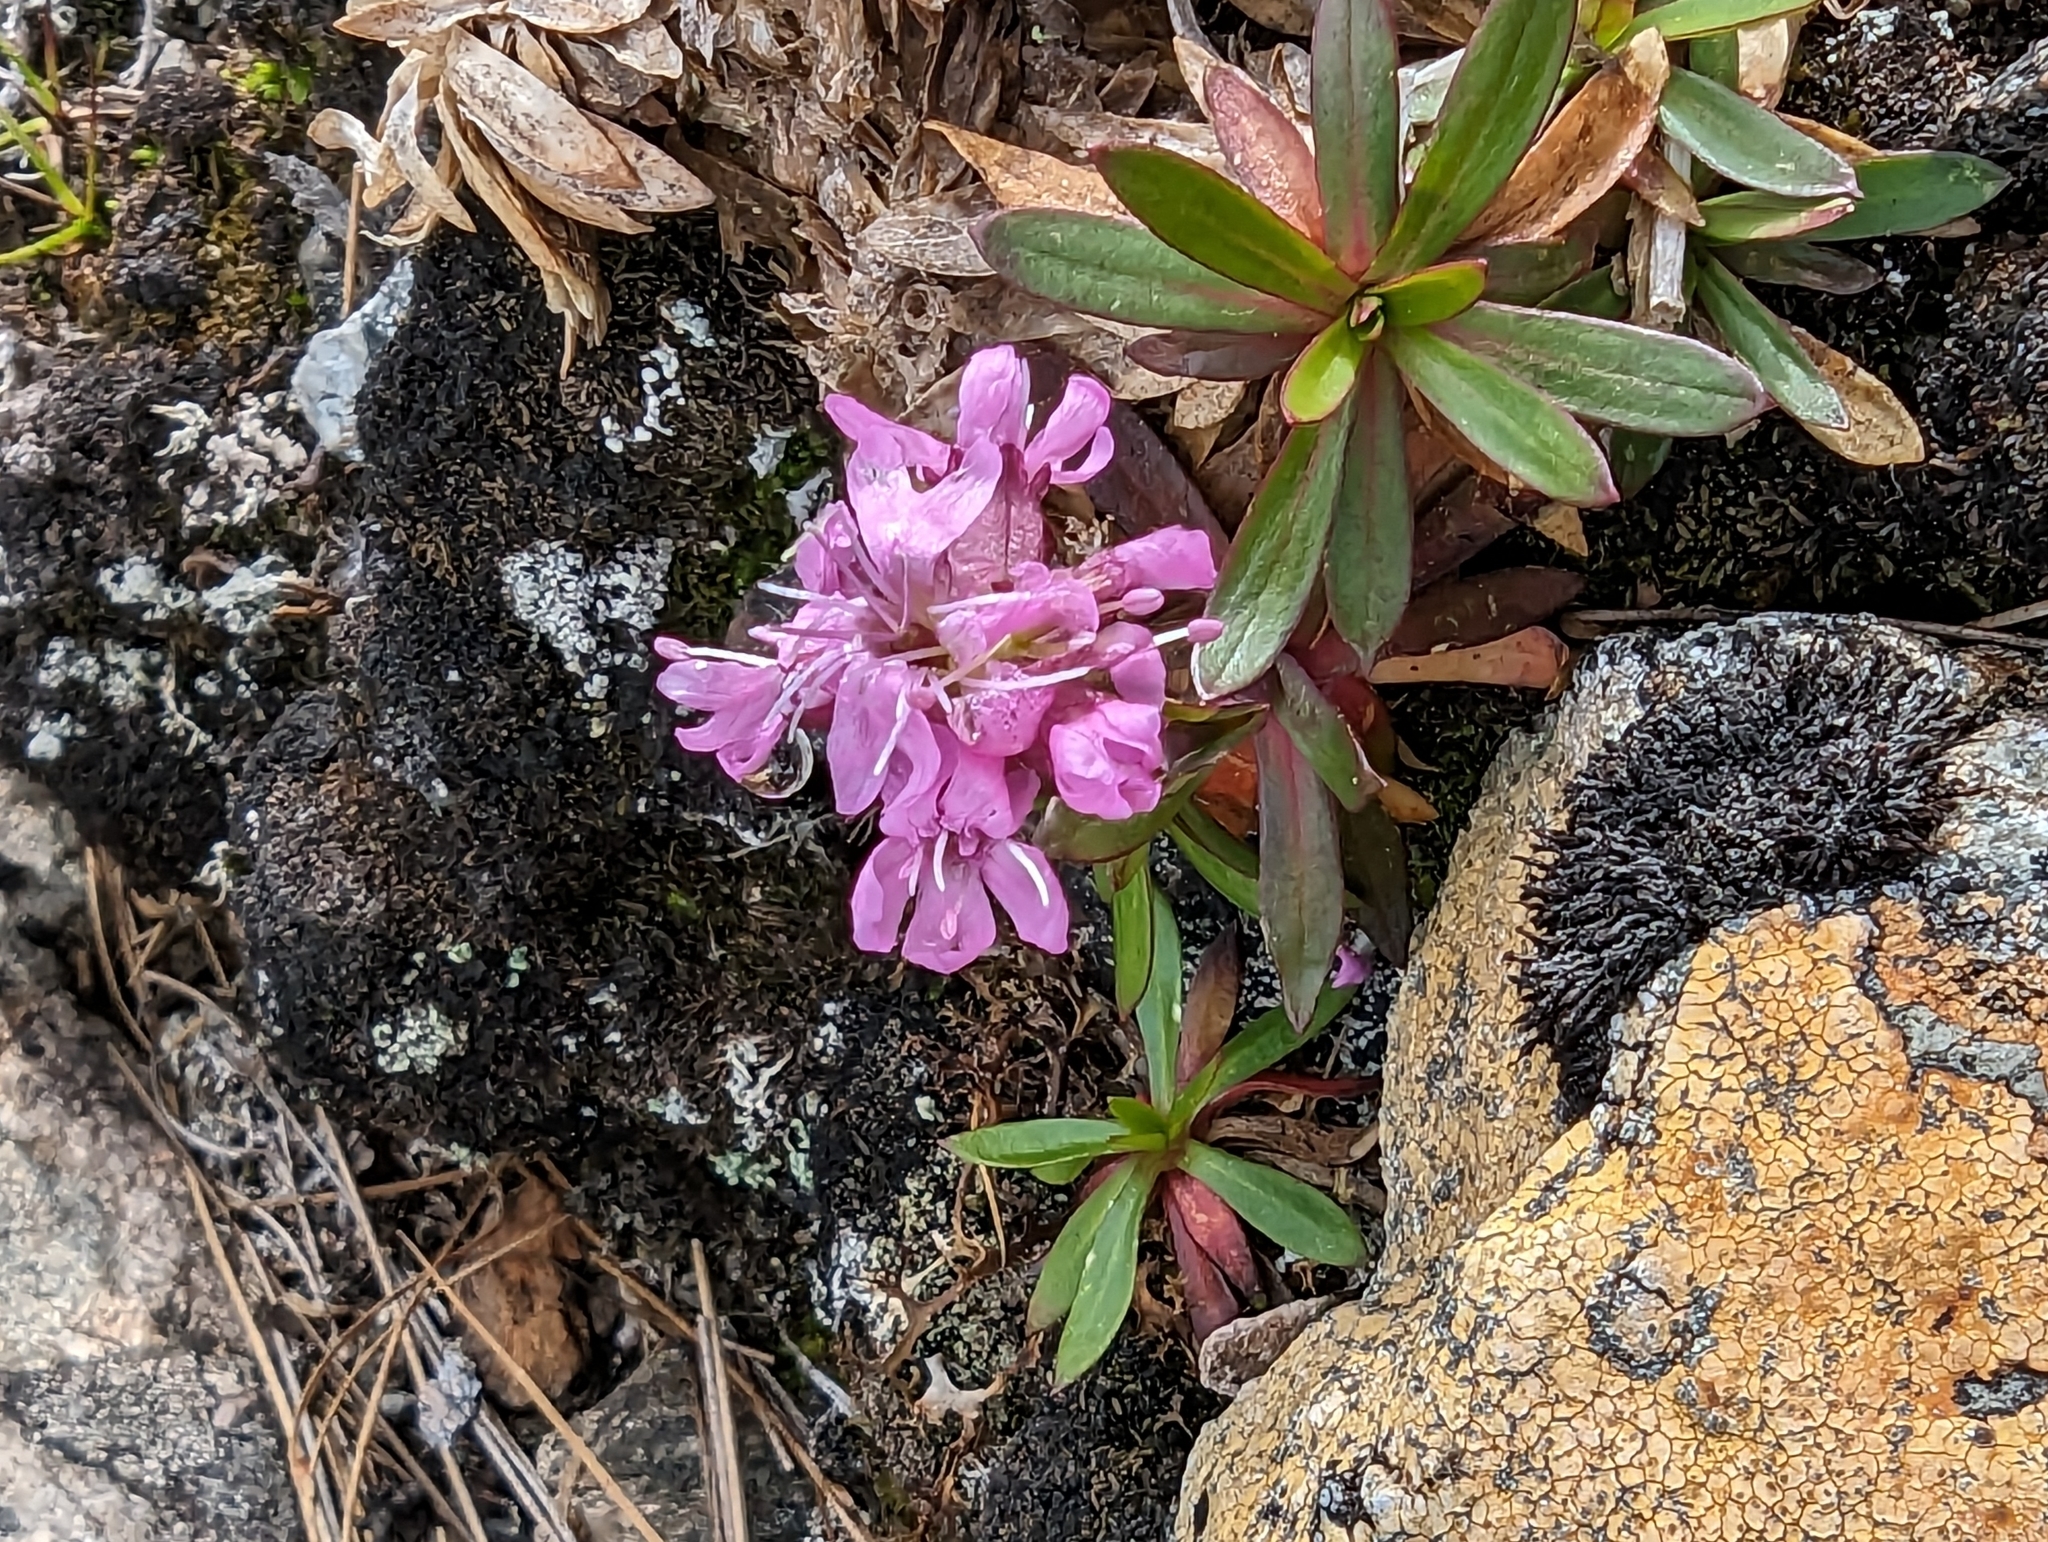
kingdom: Plantae
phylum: Tracheophyta
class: Magnoliopsida
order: Caryophyllales
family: Caryophyllaceae
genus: Viscaria
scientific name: Viscaria alpina
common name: Alpine campion
